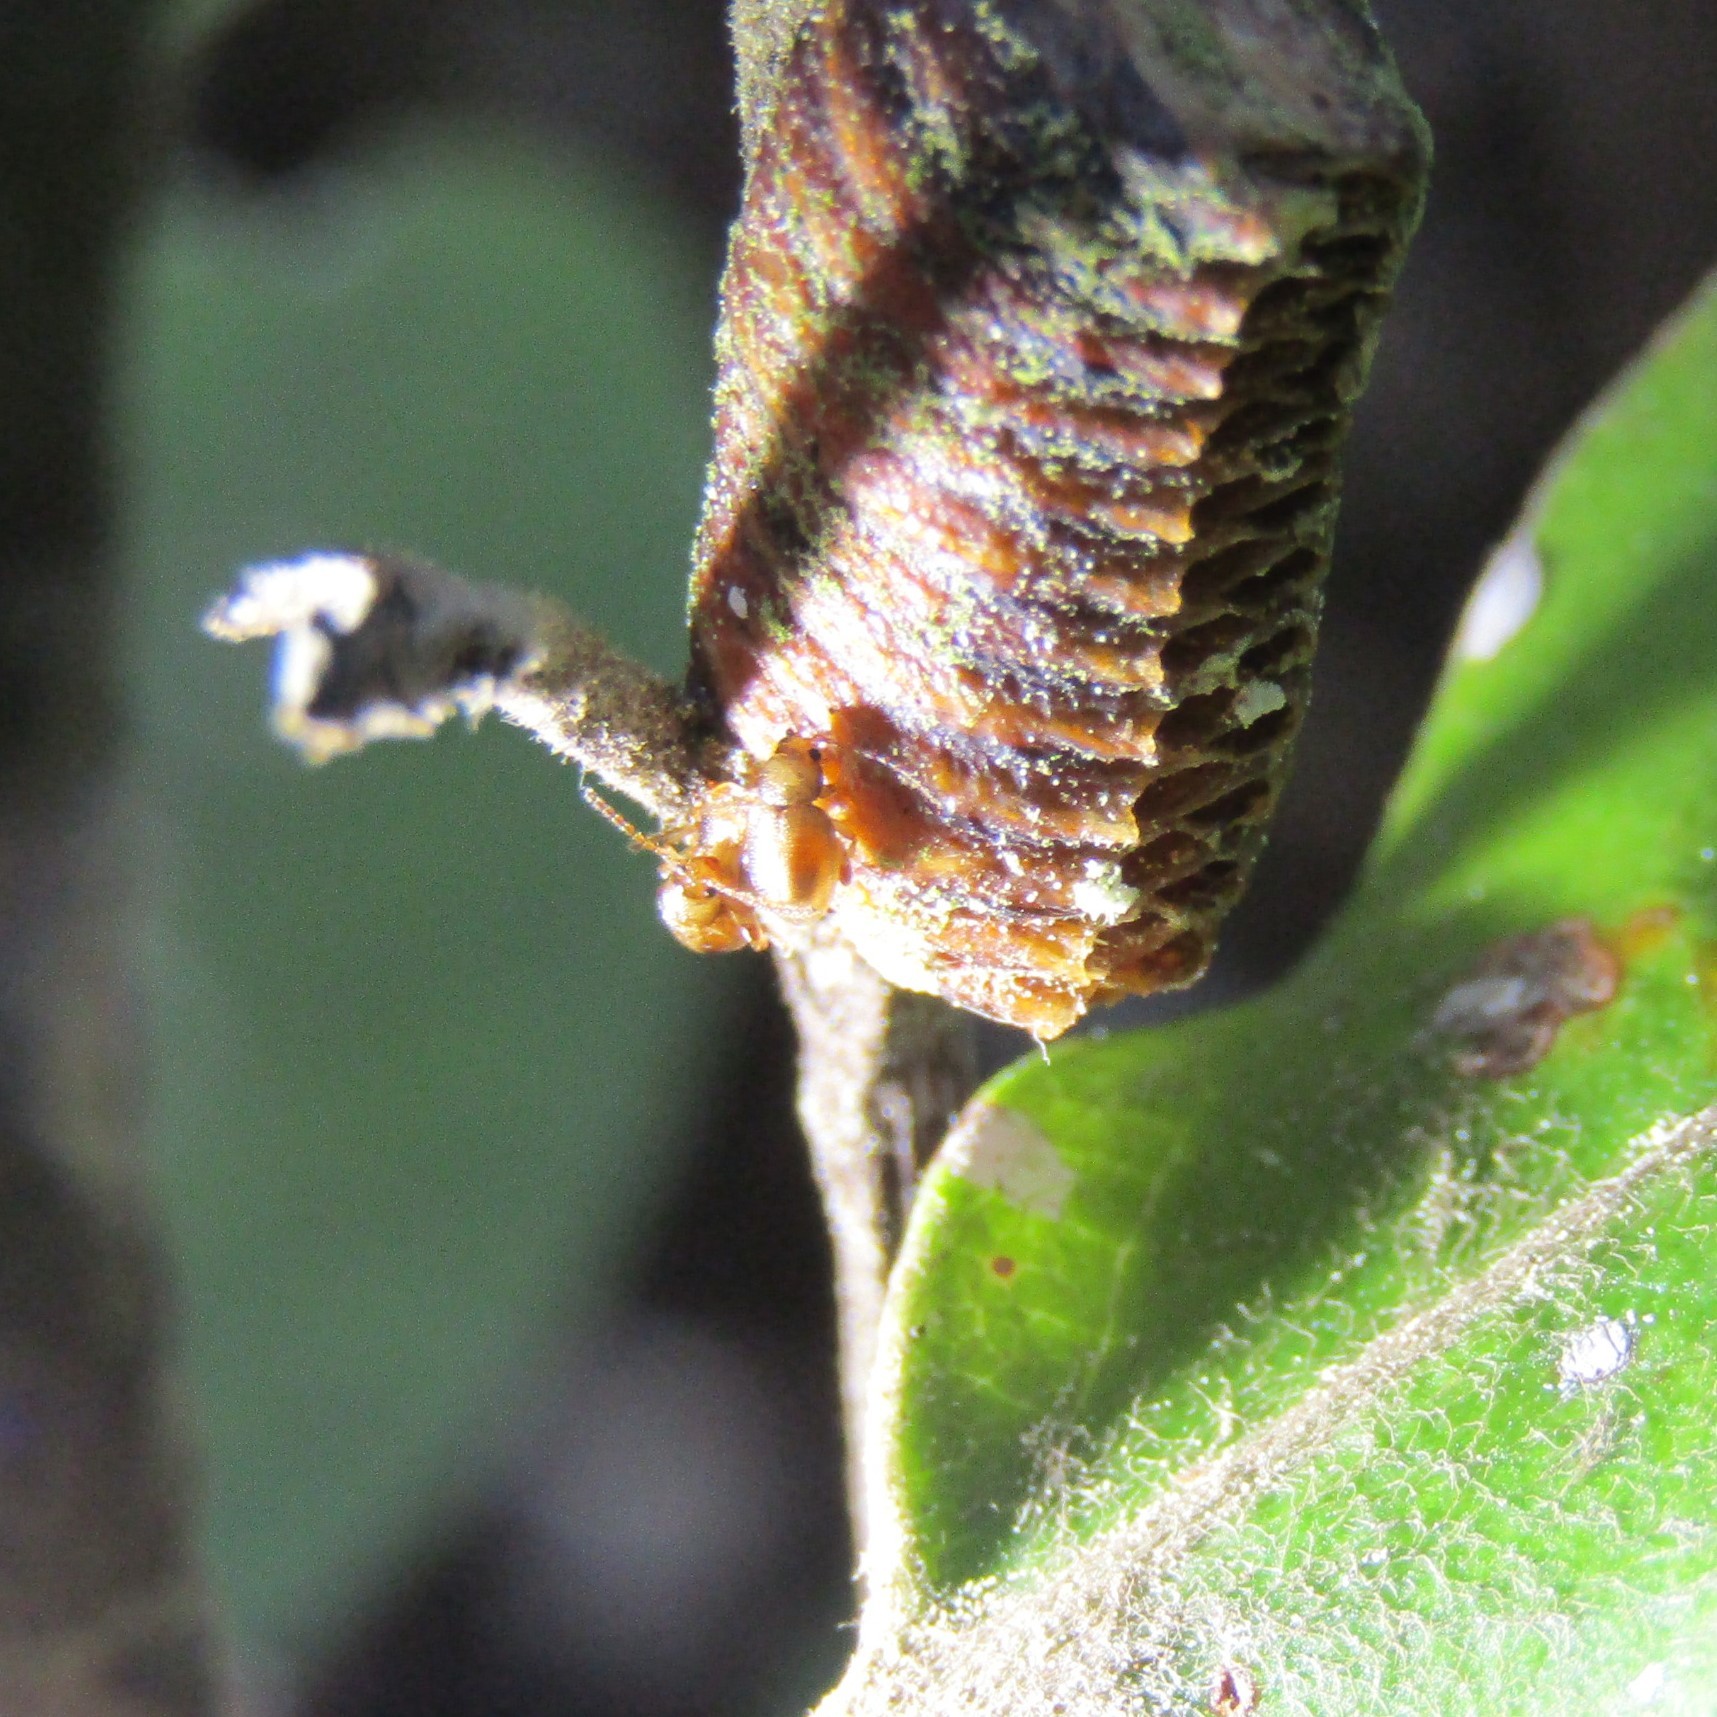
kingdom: Animalia
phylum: Arthropoda
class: Insecta
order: Mantodea
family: Mantidae
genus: Orthodera
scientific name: Orthodera novaezealandiae
